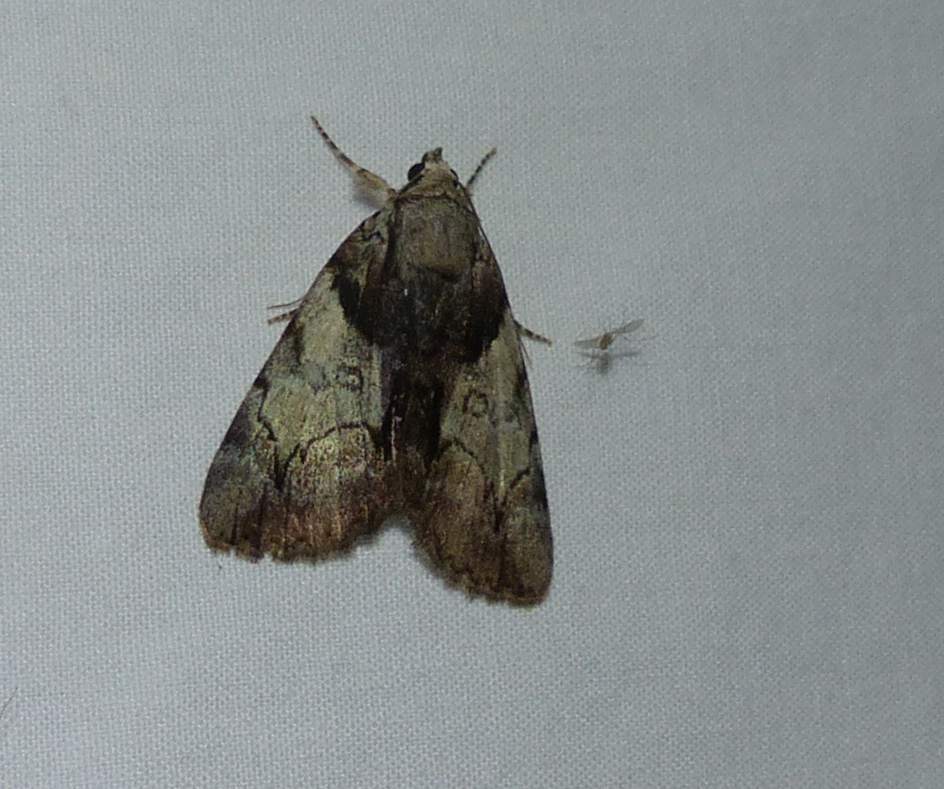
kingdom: Animalia
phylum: Arthropoda
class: Insecta
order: Lepidoptera
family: Erebidae
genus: Catocala
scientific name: Catocala crataegi
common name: Hawthorn underwing moth
